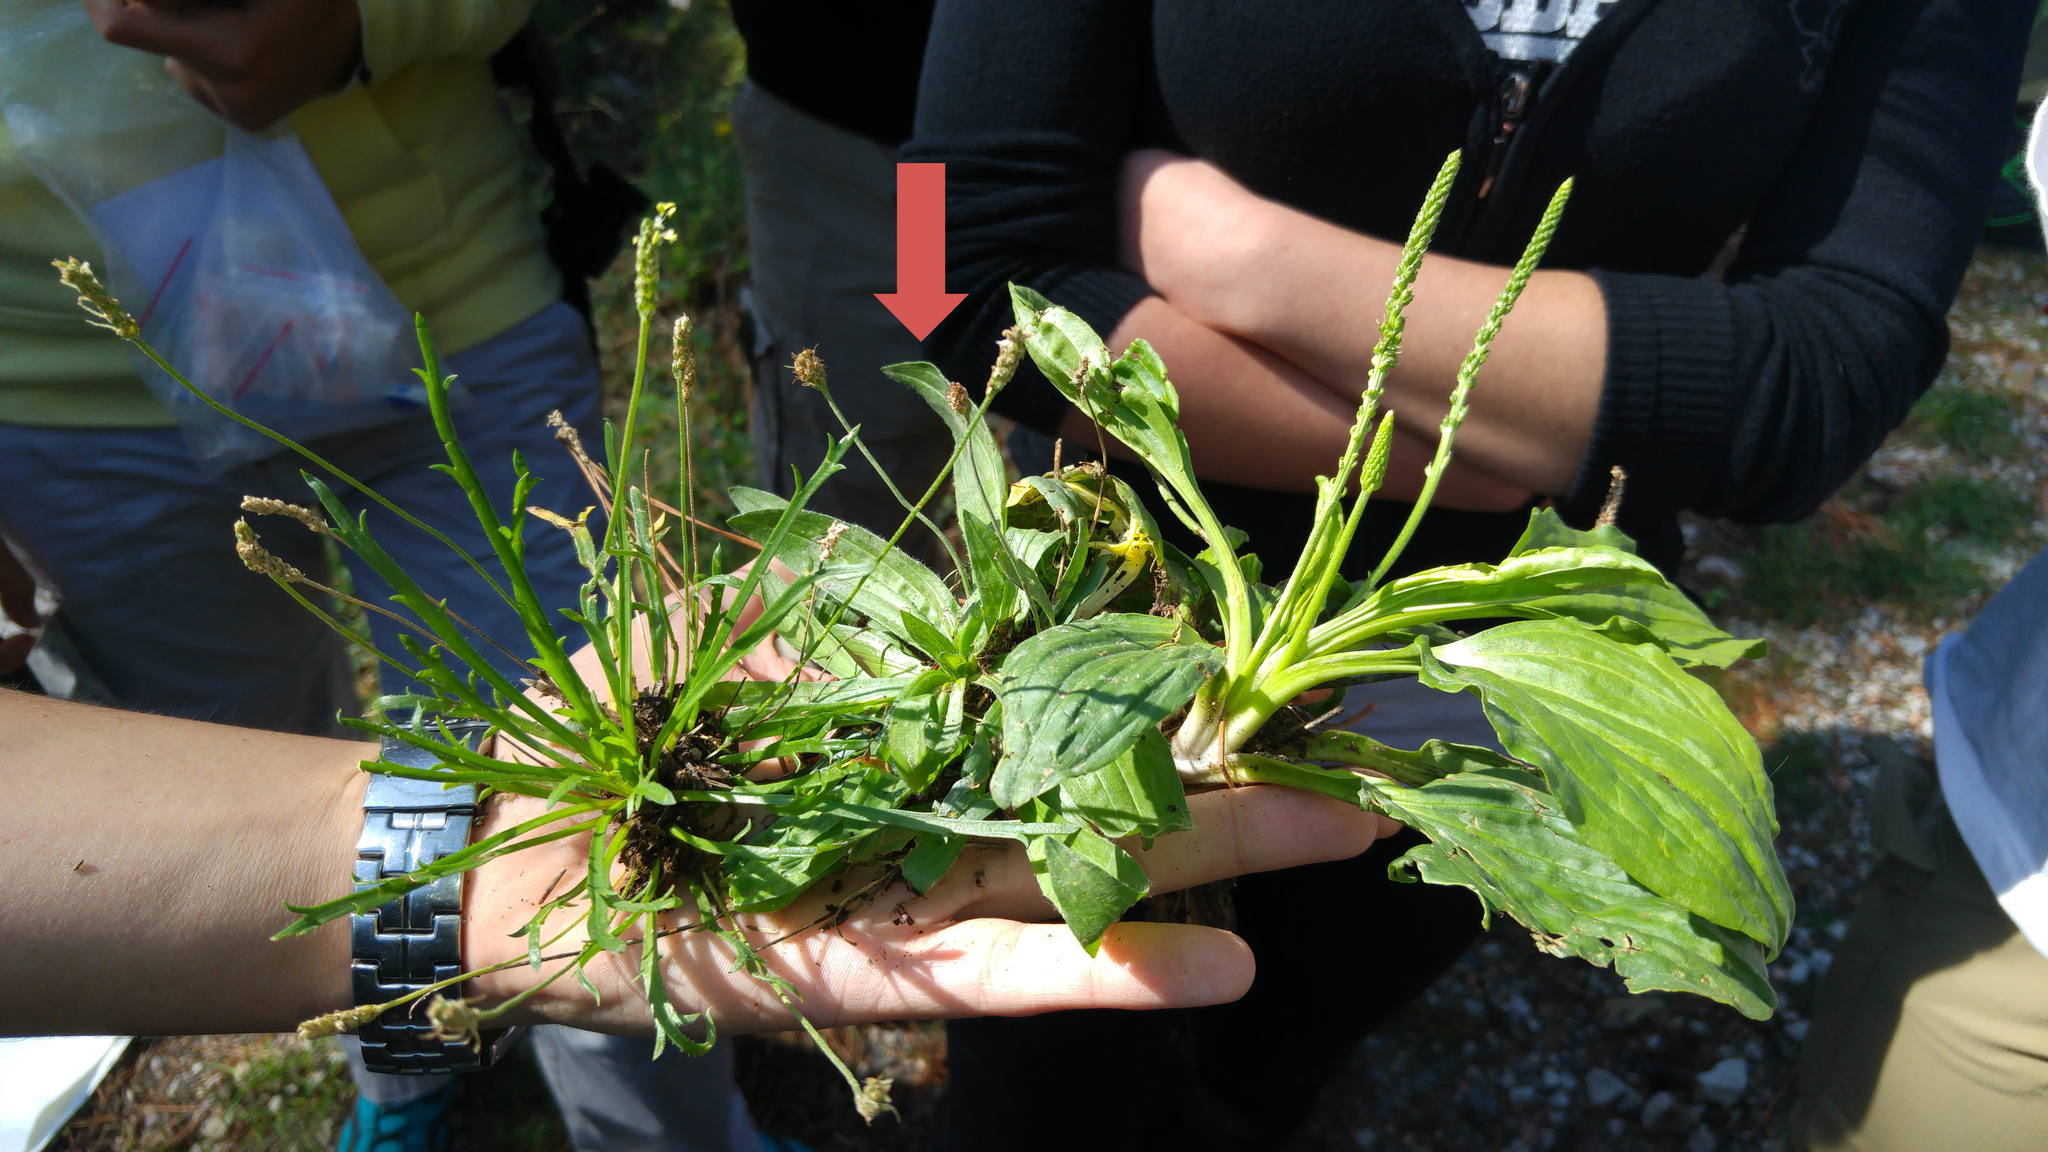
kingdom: Plantae
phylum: Tracheophyta
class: Magnoliopsida
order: Lamiales
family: Plantaginaceae
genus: Plantago
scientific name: Plantago lanceolata
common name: Ribwort plantain
